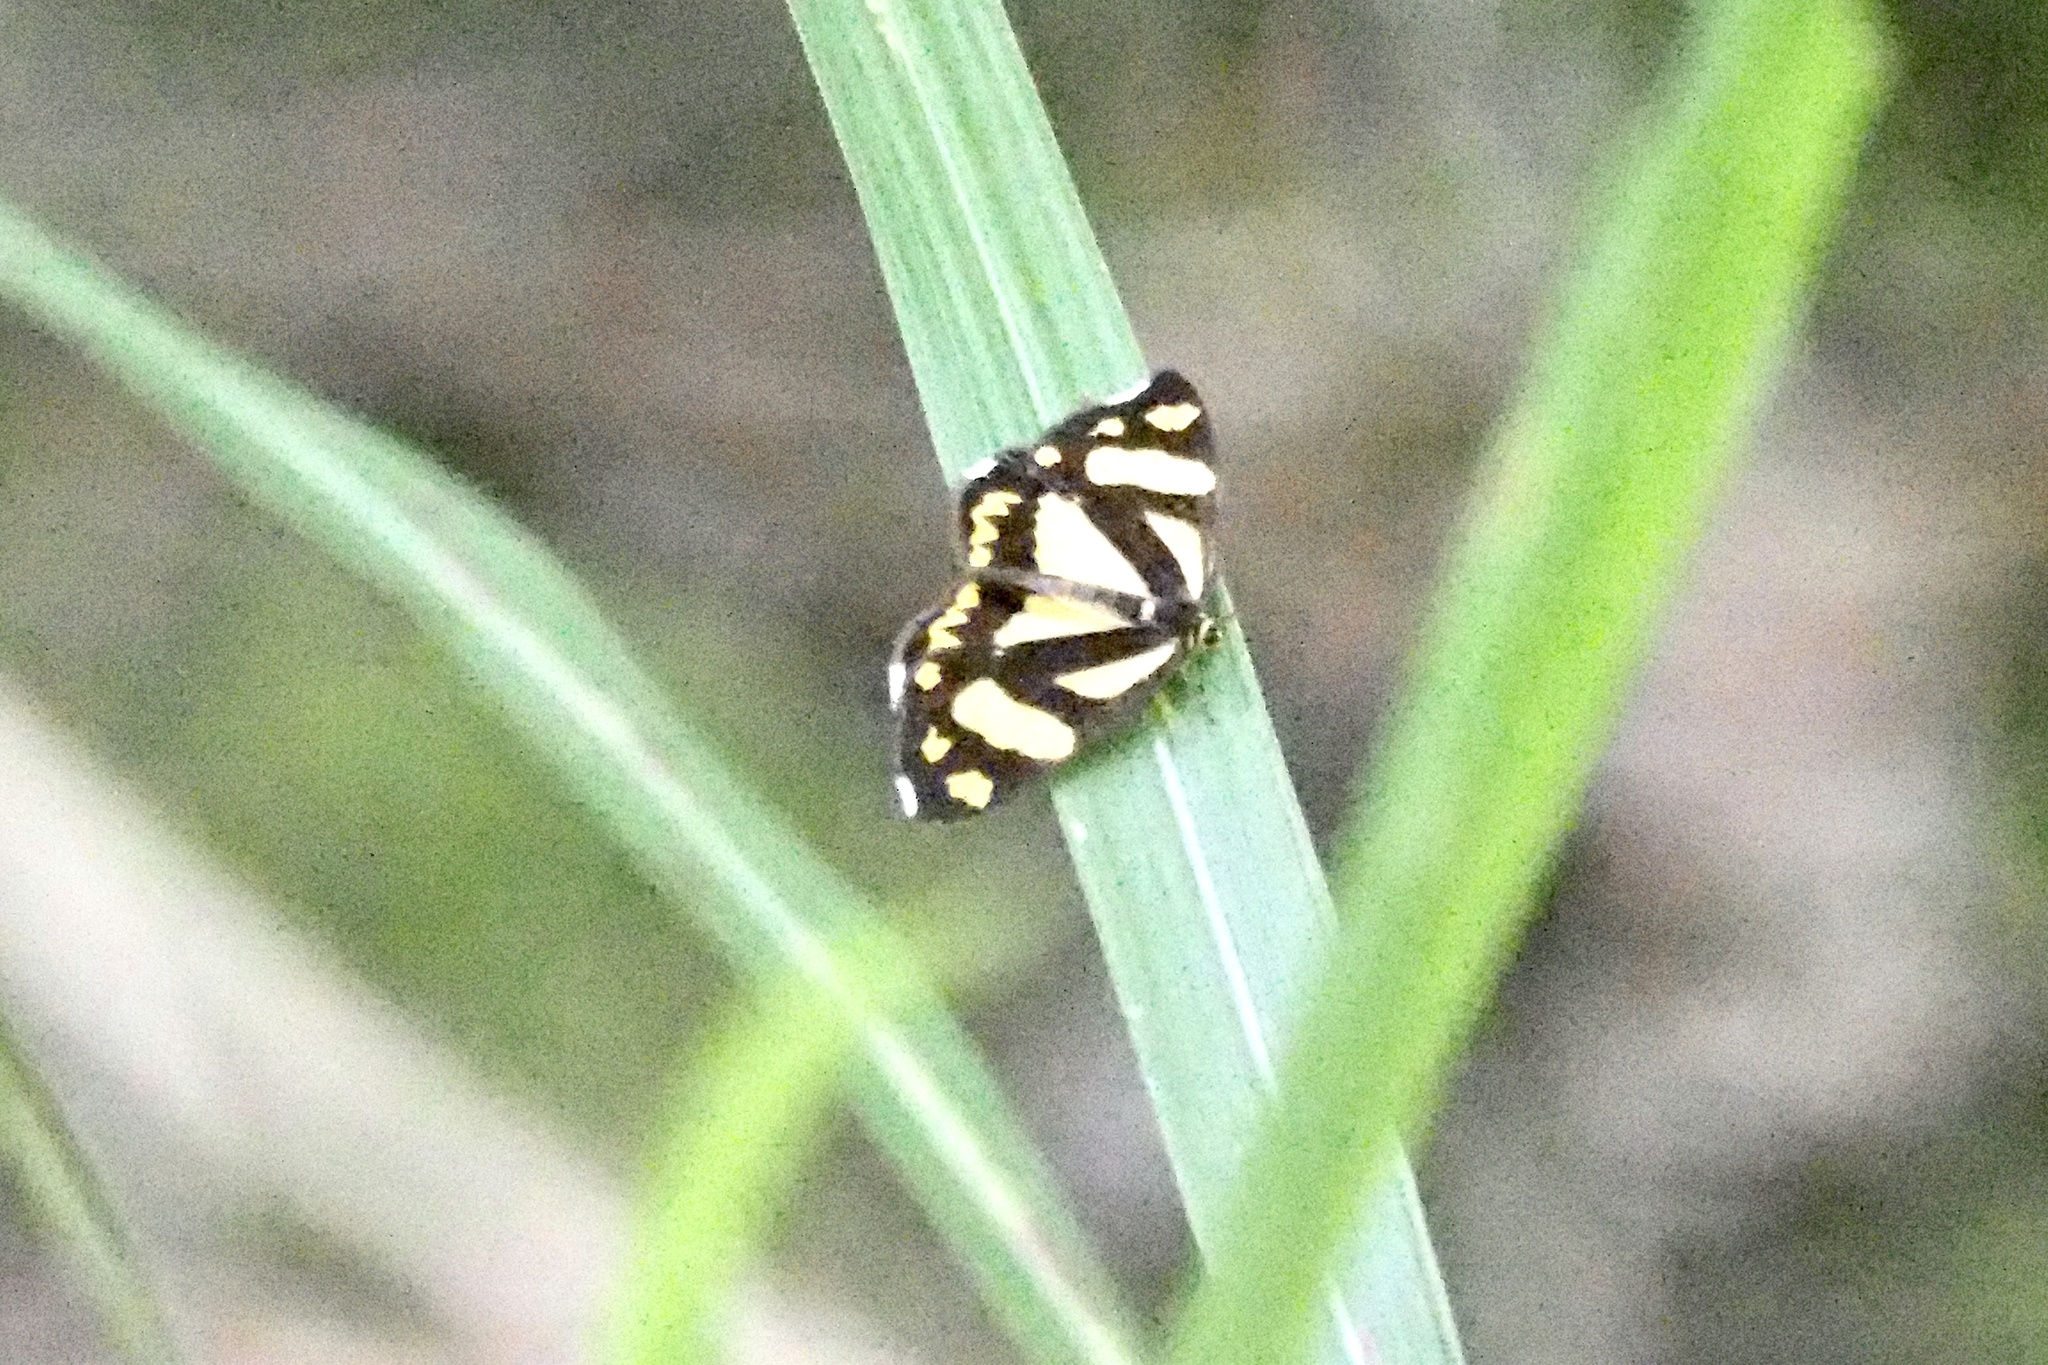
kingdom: Animalia
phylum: Arthropoda
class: Insecta
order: Lepidoptera
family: Epicopeiidae
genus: Psychostrophia
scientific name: Psychostrophia melanargia
